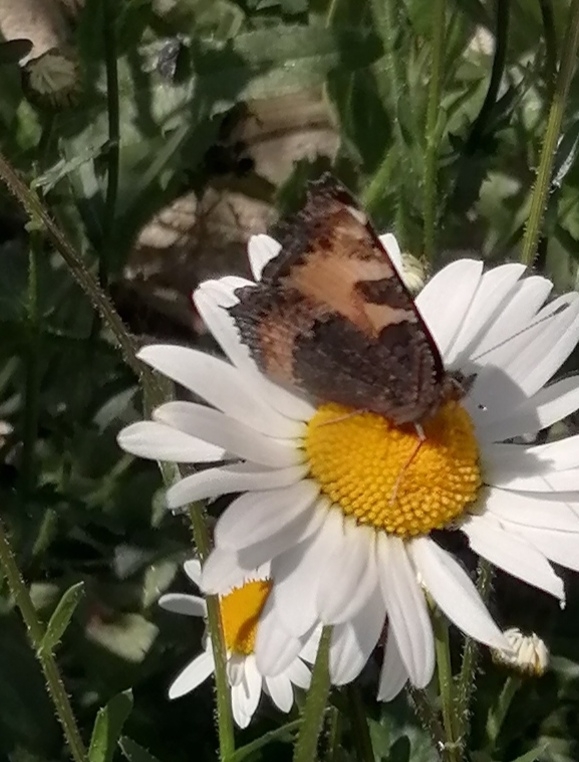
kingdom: Animalia
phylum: Arthropoda
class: Insecta
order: Lepidoptera
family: Nymphalidae
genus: Aglais
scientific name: Aglais urticae
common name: Small tortoiseshell
